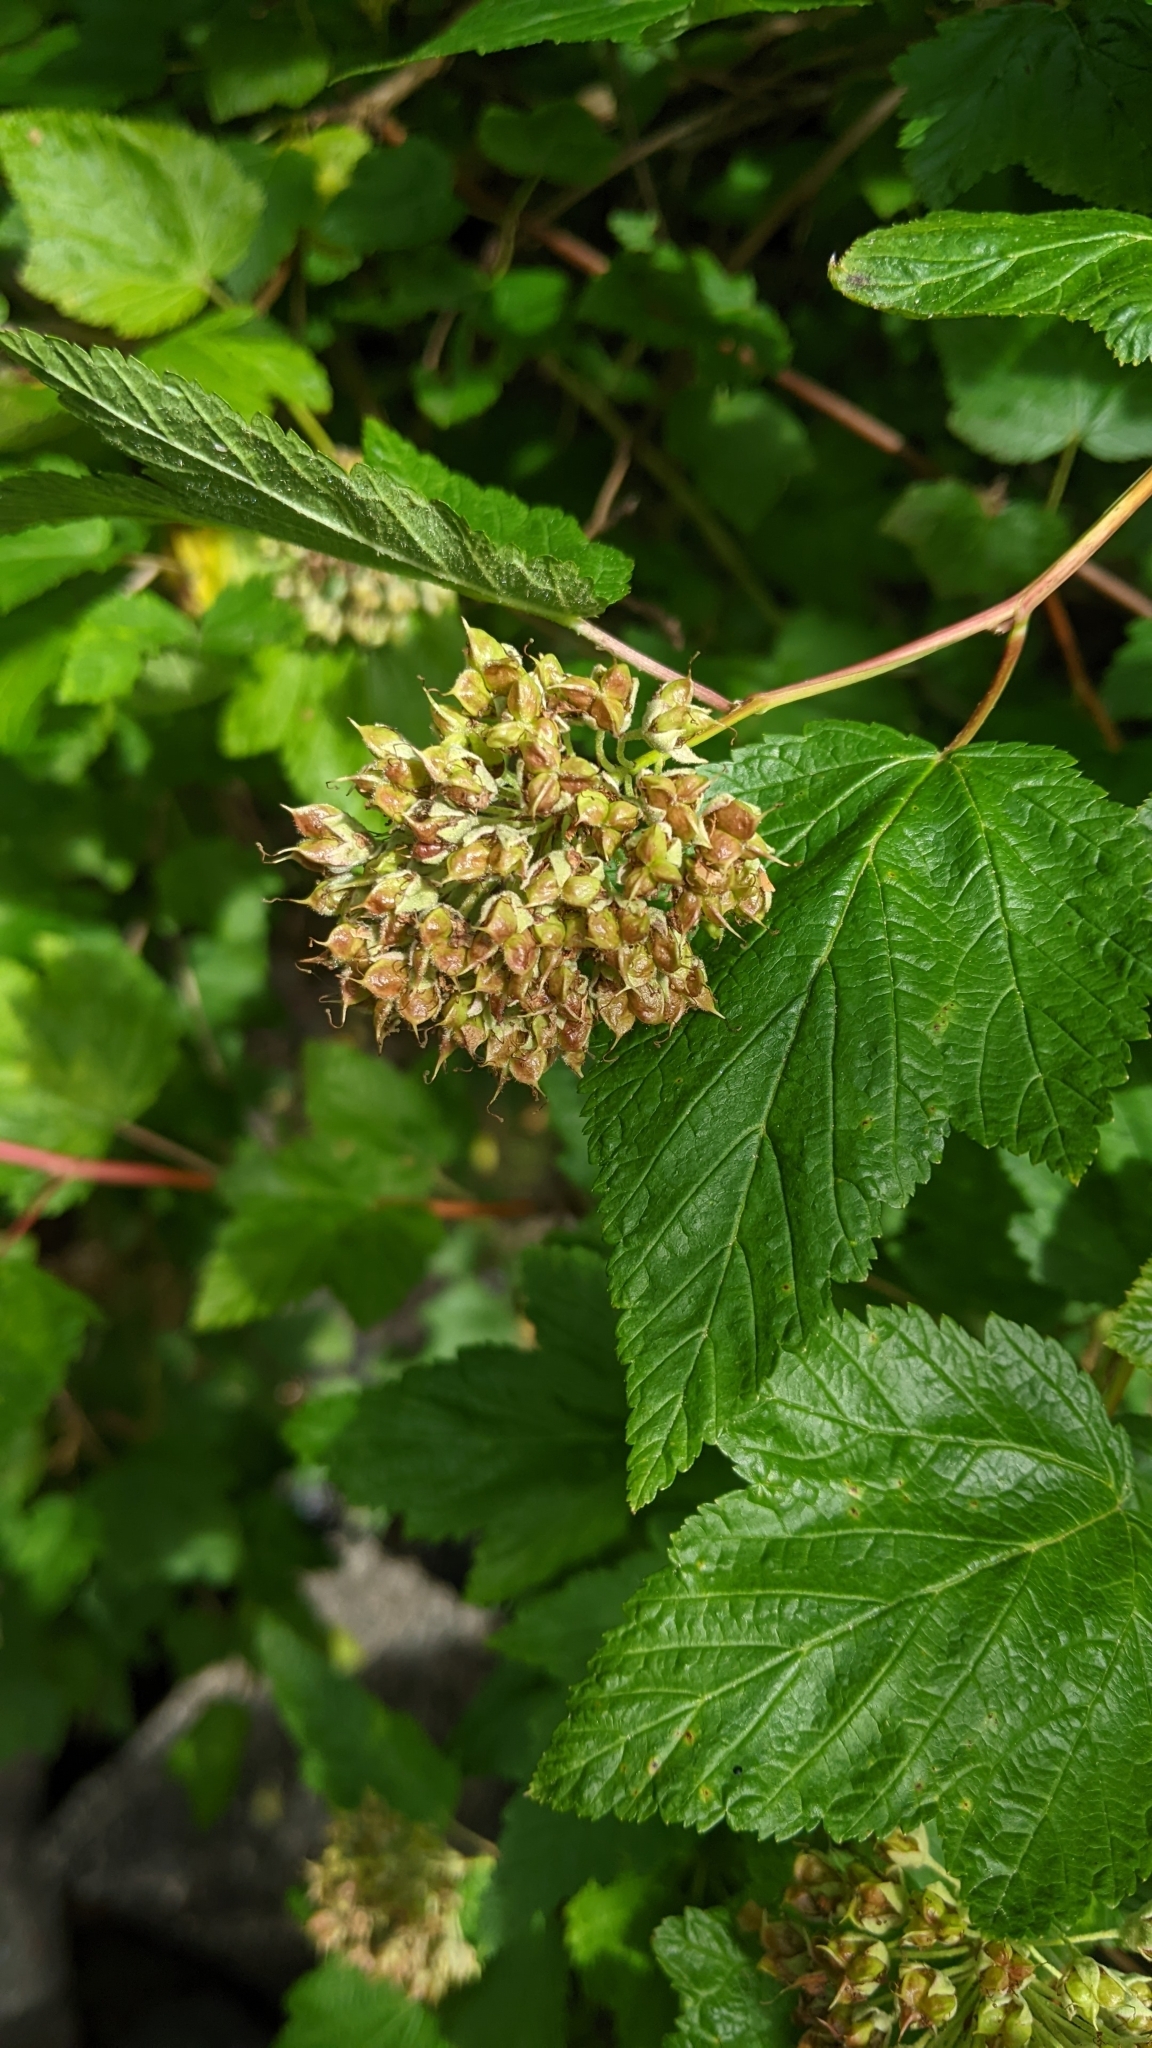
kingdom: Plantae
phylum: Tracheophyta
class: Magnoliopsida
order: Rosales
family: Rosaceae
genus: Physocarpus
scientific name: Physocarpus capitatus
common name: Pacific ninebark
